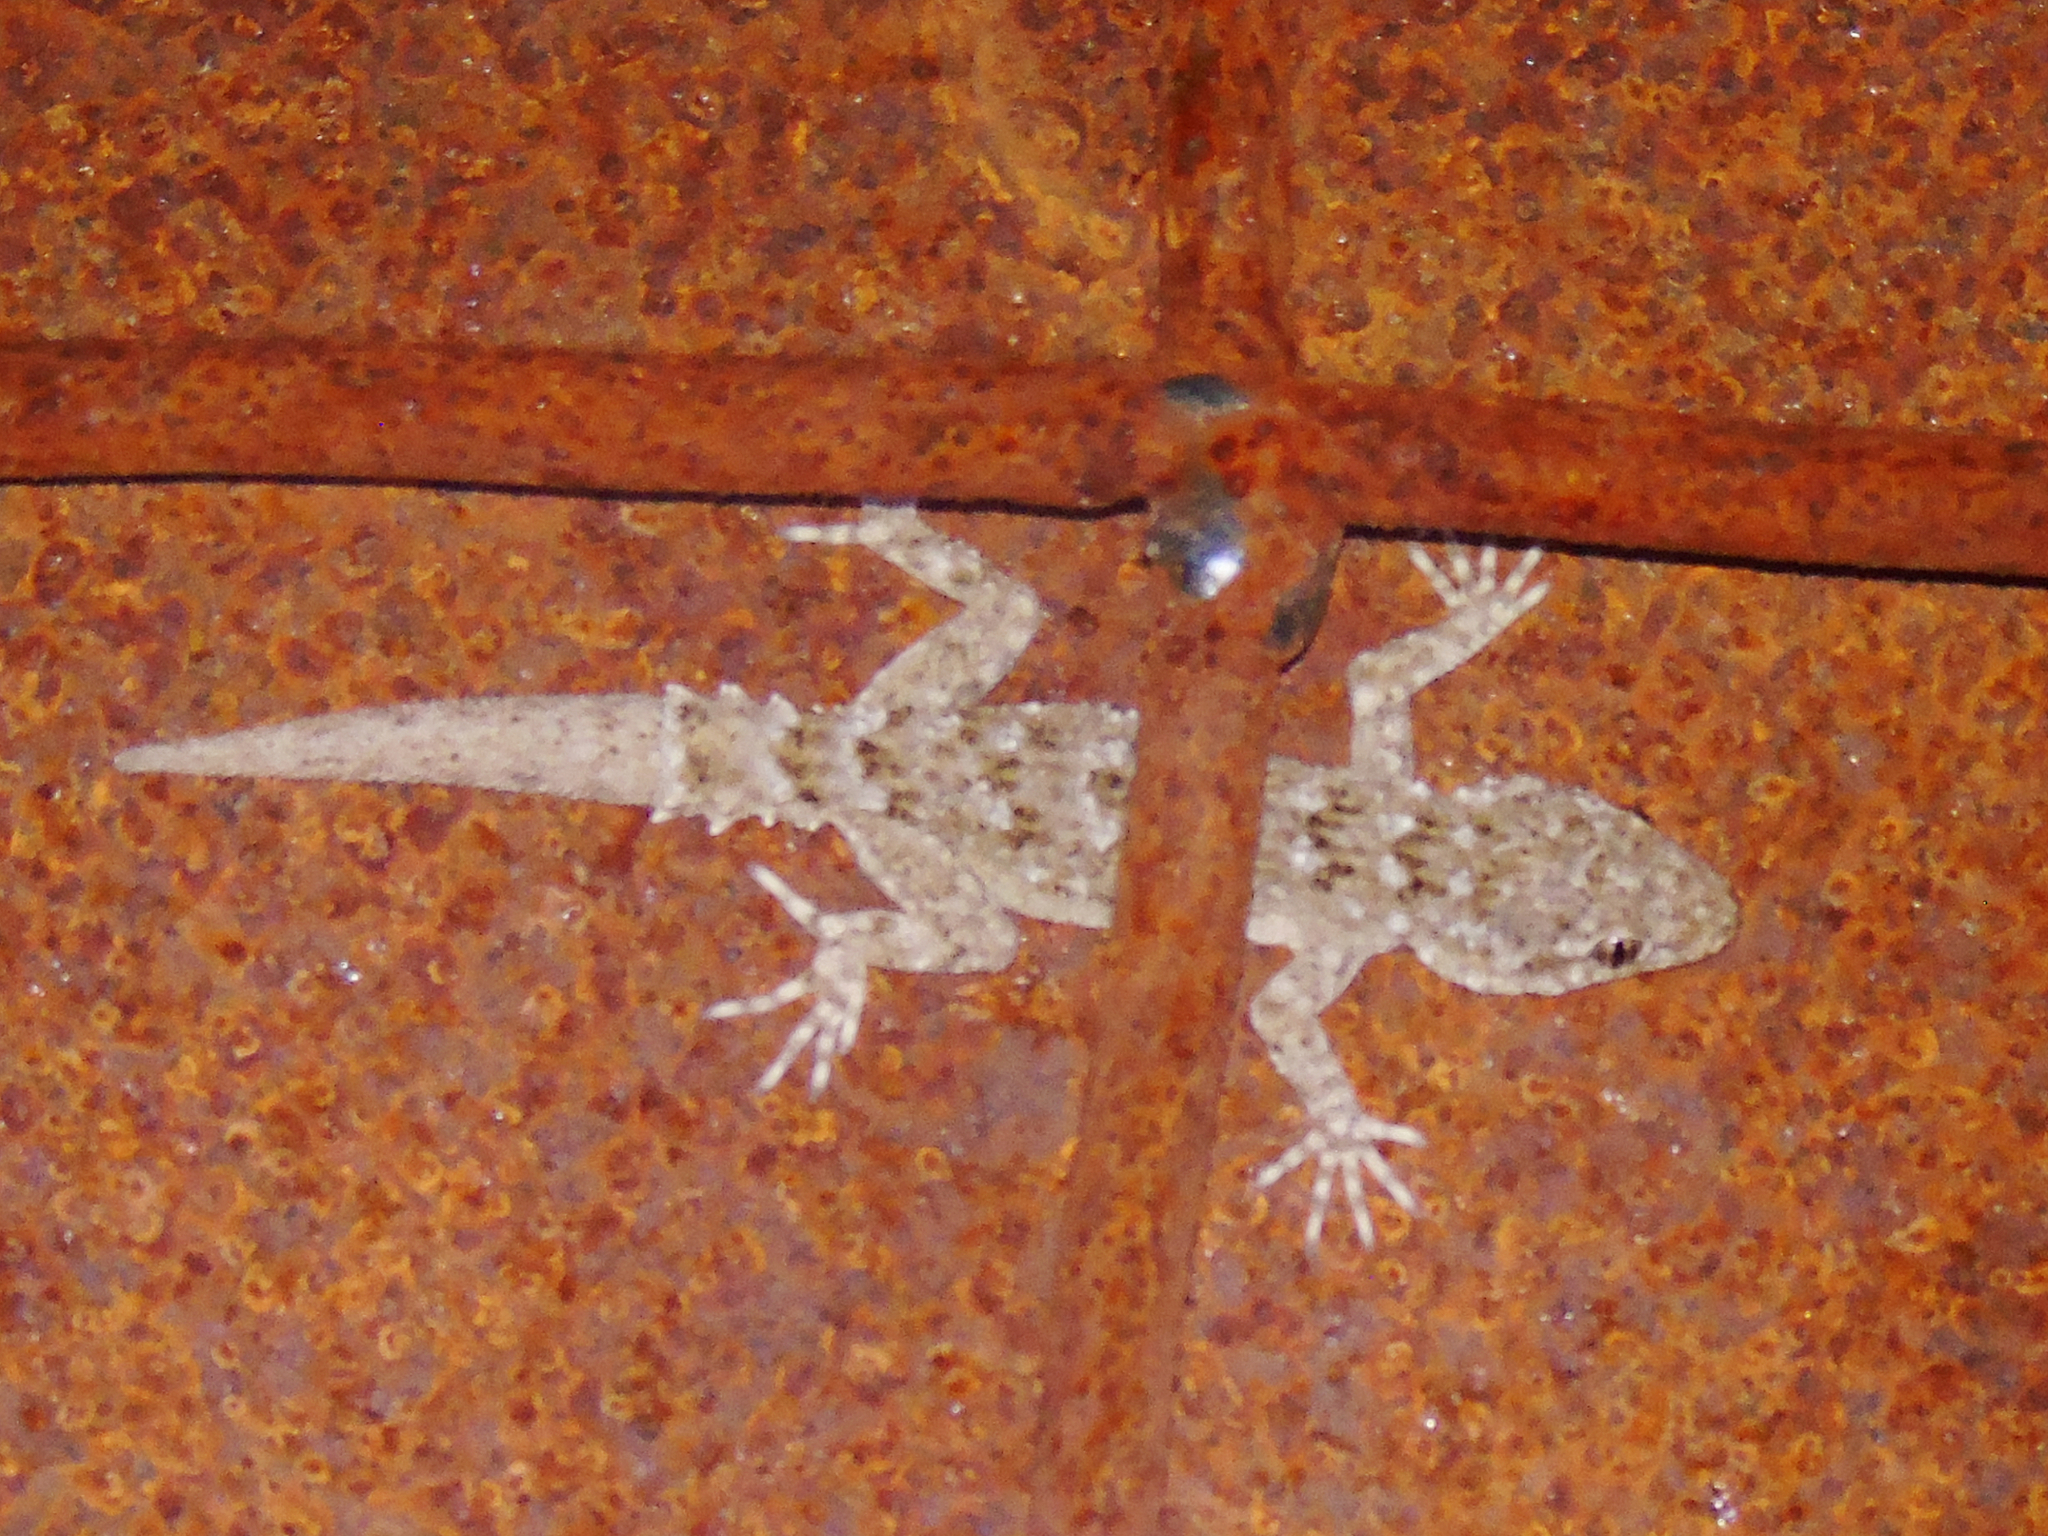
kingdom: Animalia
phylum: Chordata
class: Squamata
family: Gekkonidae
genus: Mediodactylus
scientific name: Mediodactylus kotschyi
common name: Kotschy's gecko
